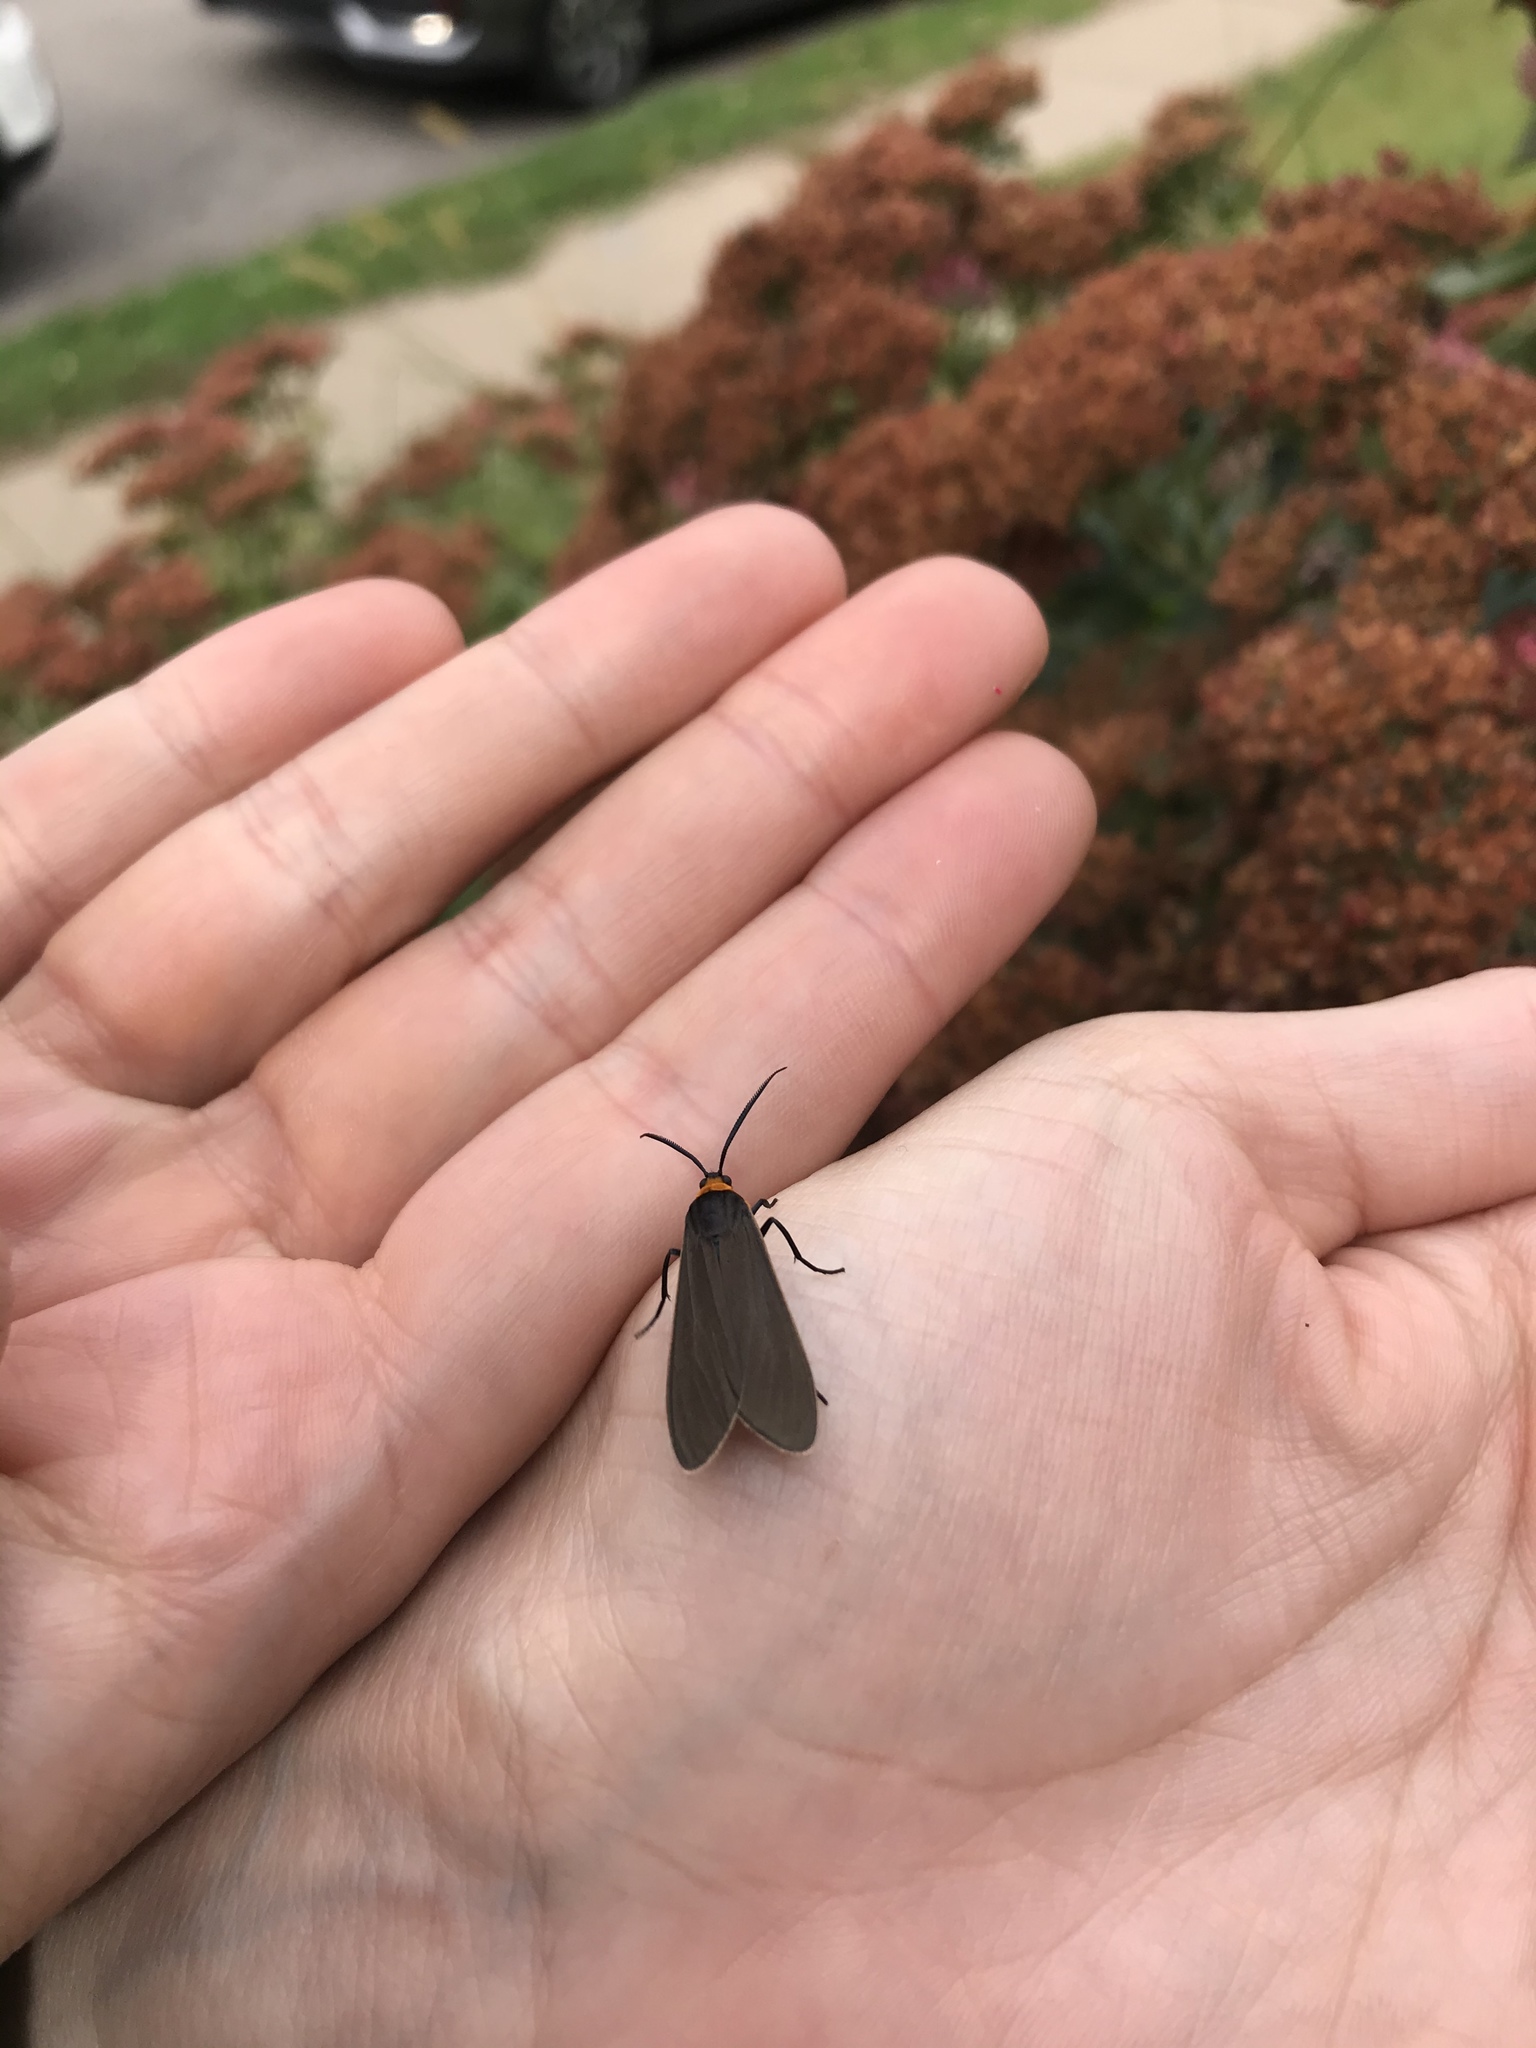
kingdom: Animalia
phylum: Arthropoda
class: Insecta
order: Lepidoptera
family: Erebidae
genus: Cisseps
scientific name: Cisseps fulvicollis
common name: Yellow-collared scape moth
